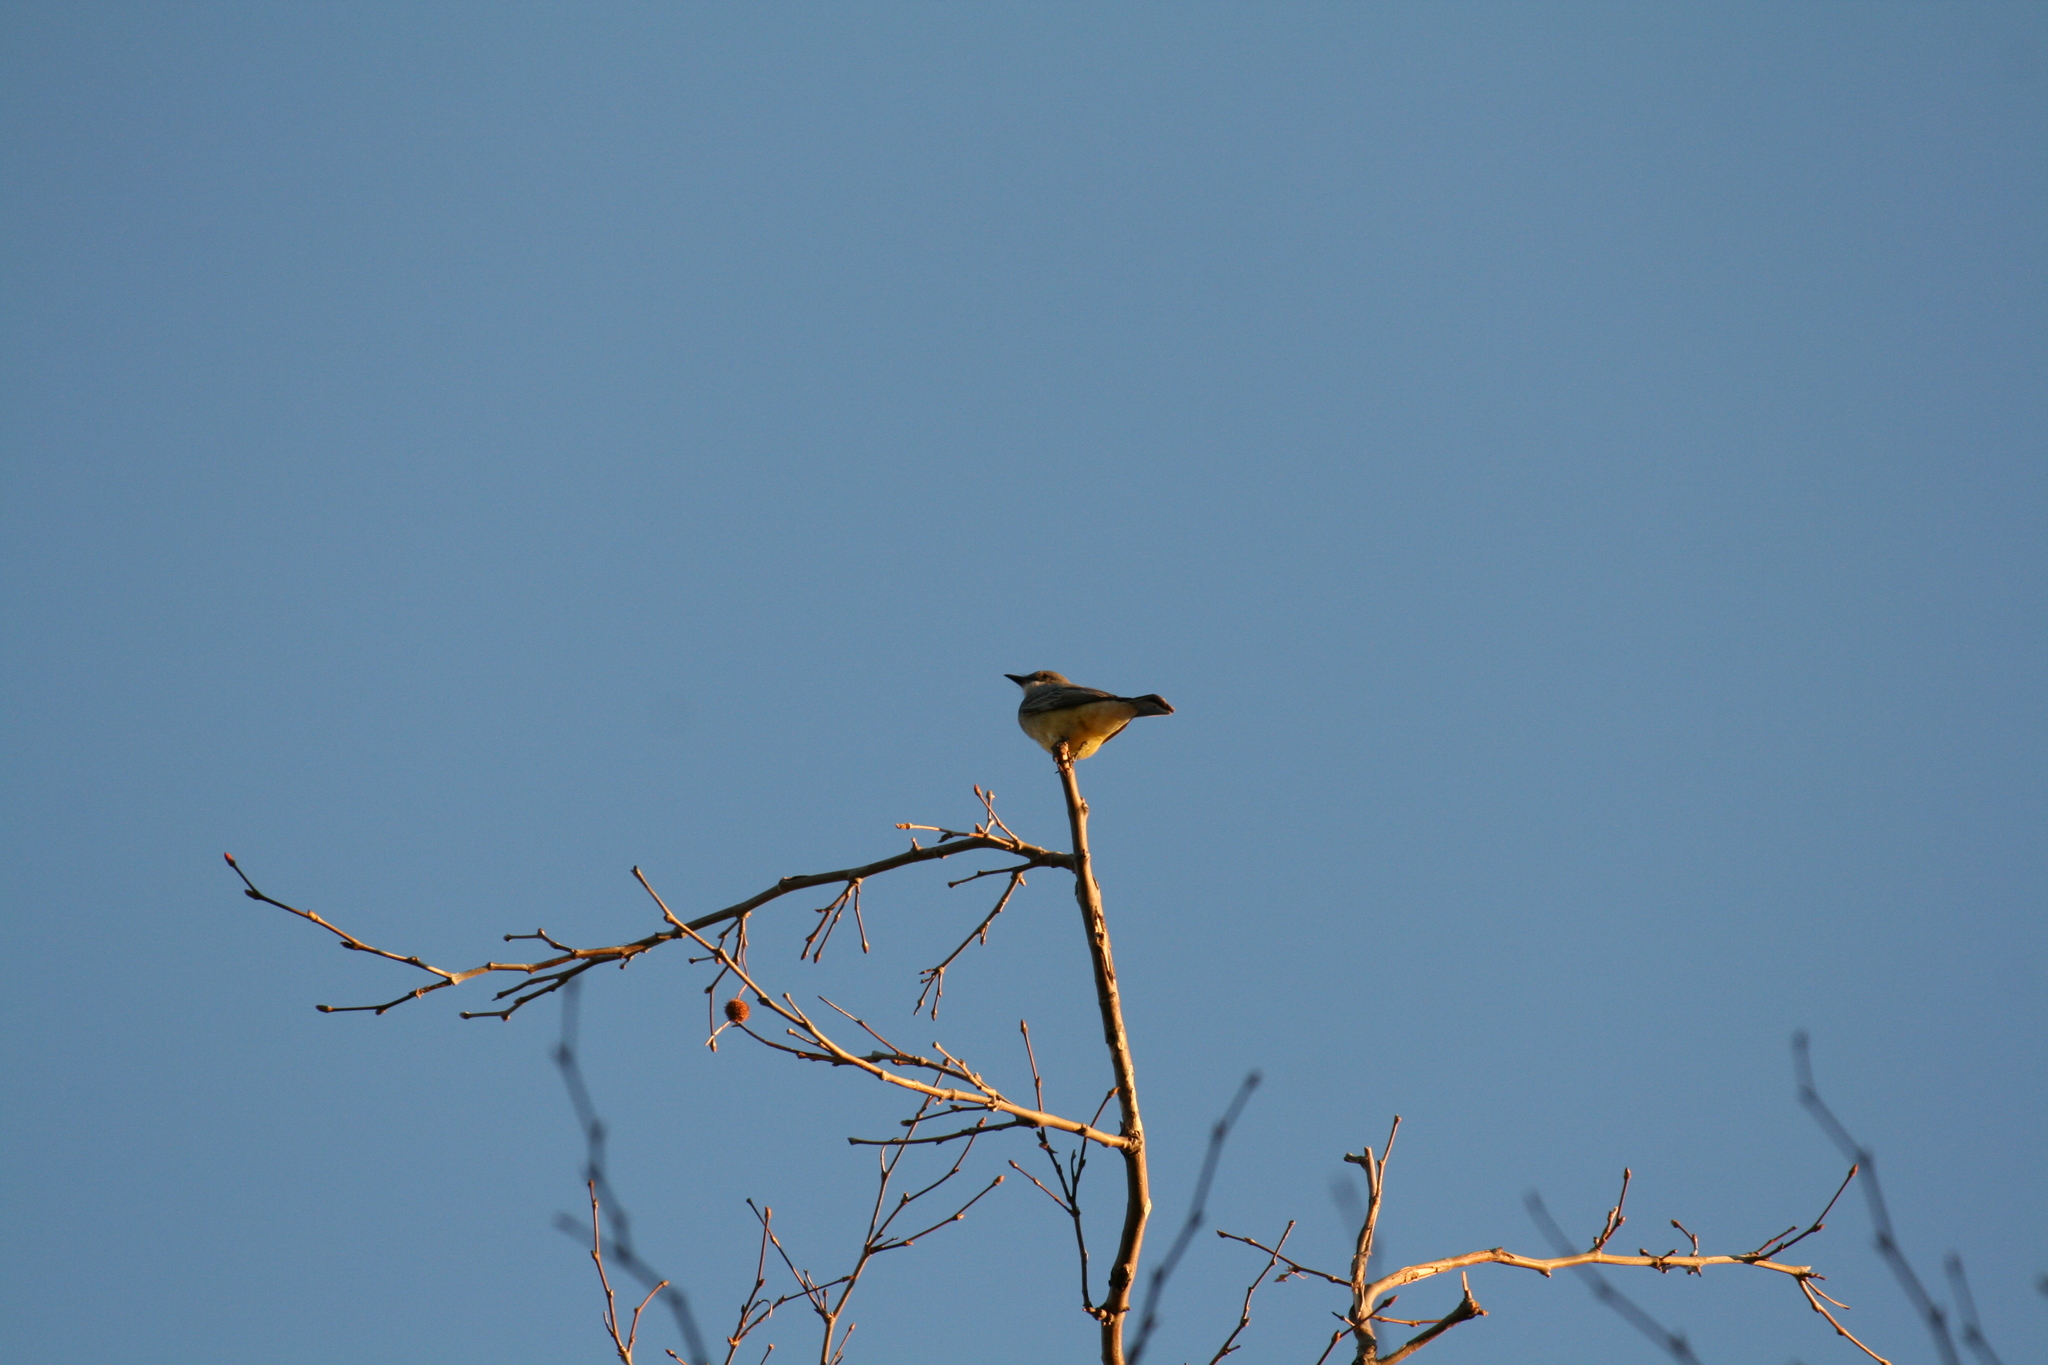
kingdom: Animalia
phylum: Chordata
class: Aves
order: Passeriformes
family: Tyrannidae
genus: Tyrannus
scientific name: Tyrannus vociferans
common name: Cassin's kingbird
